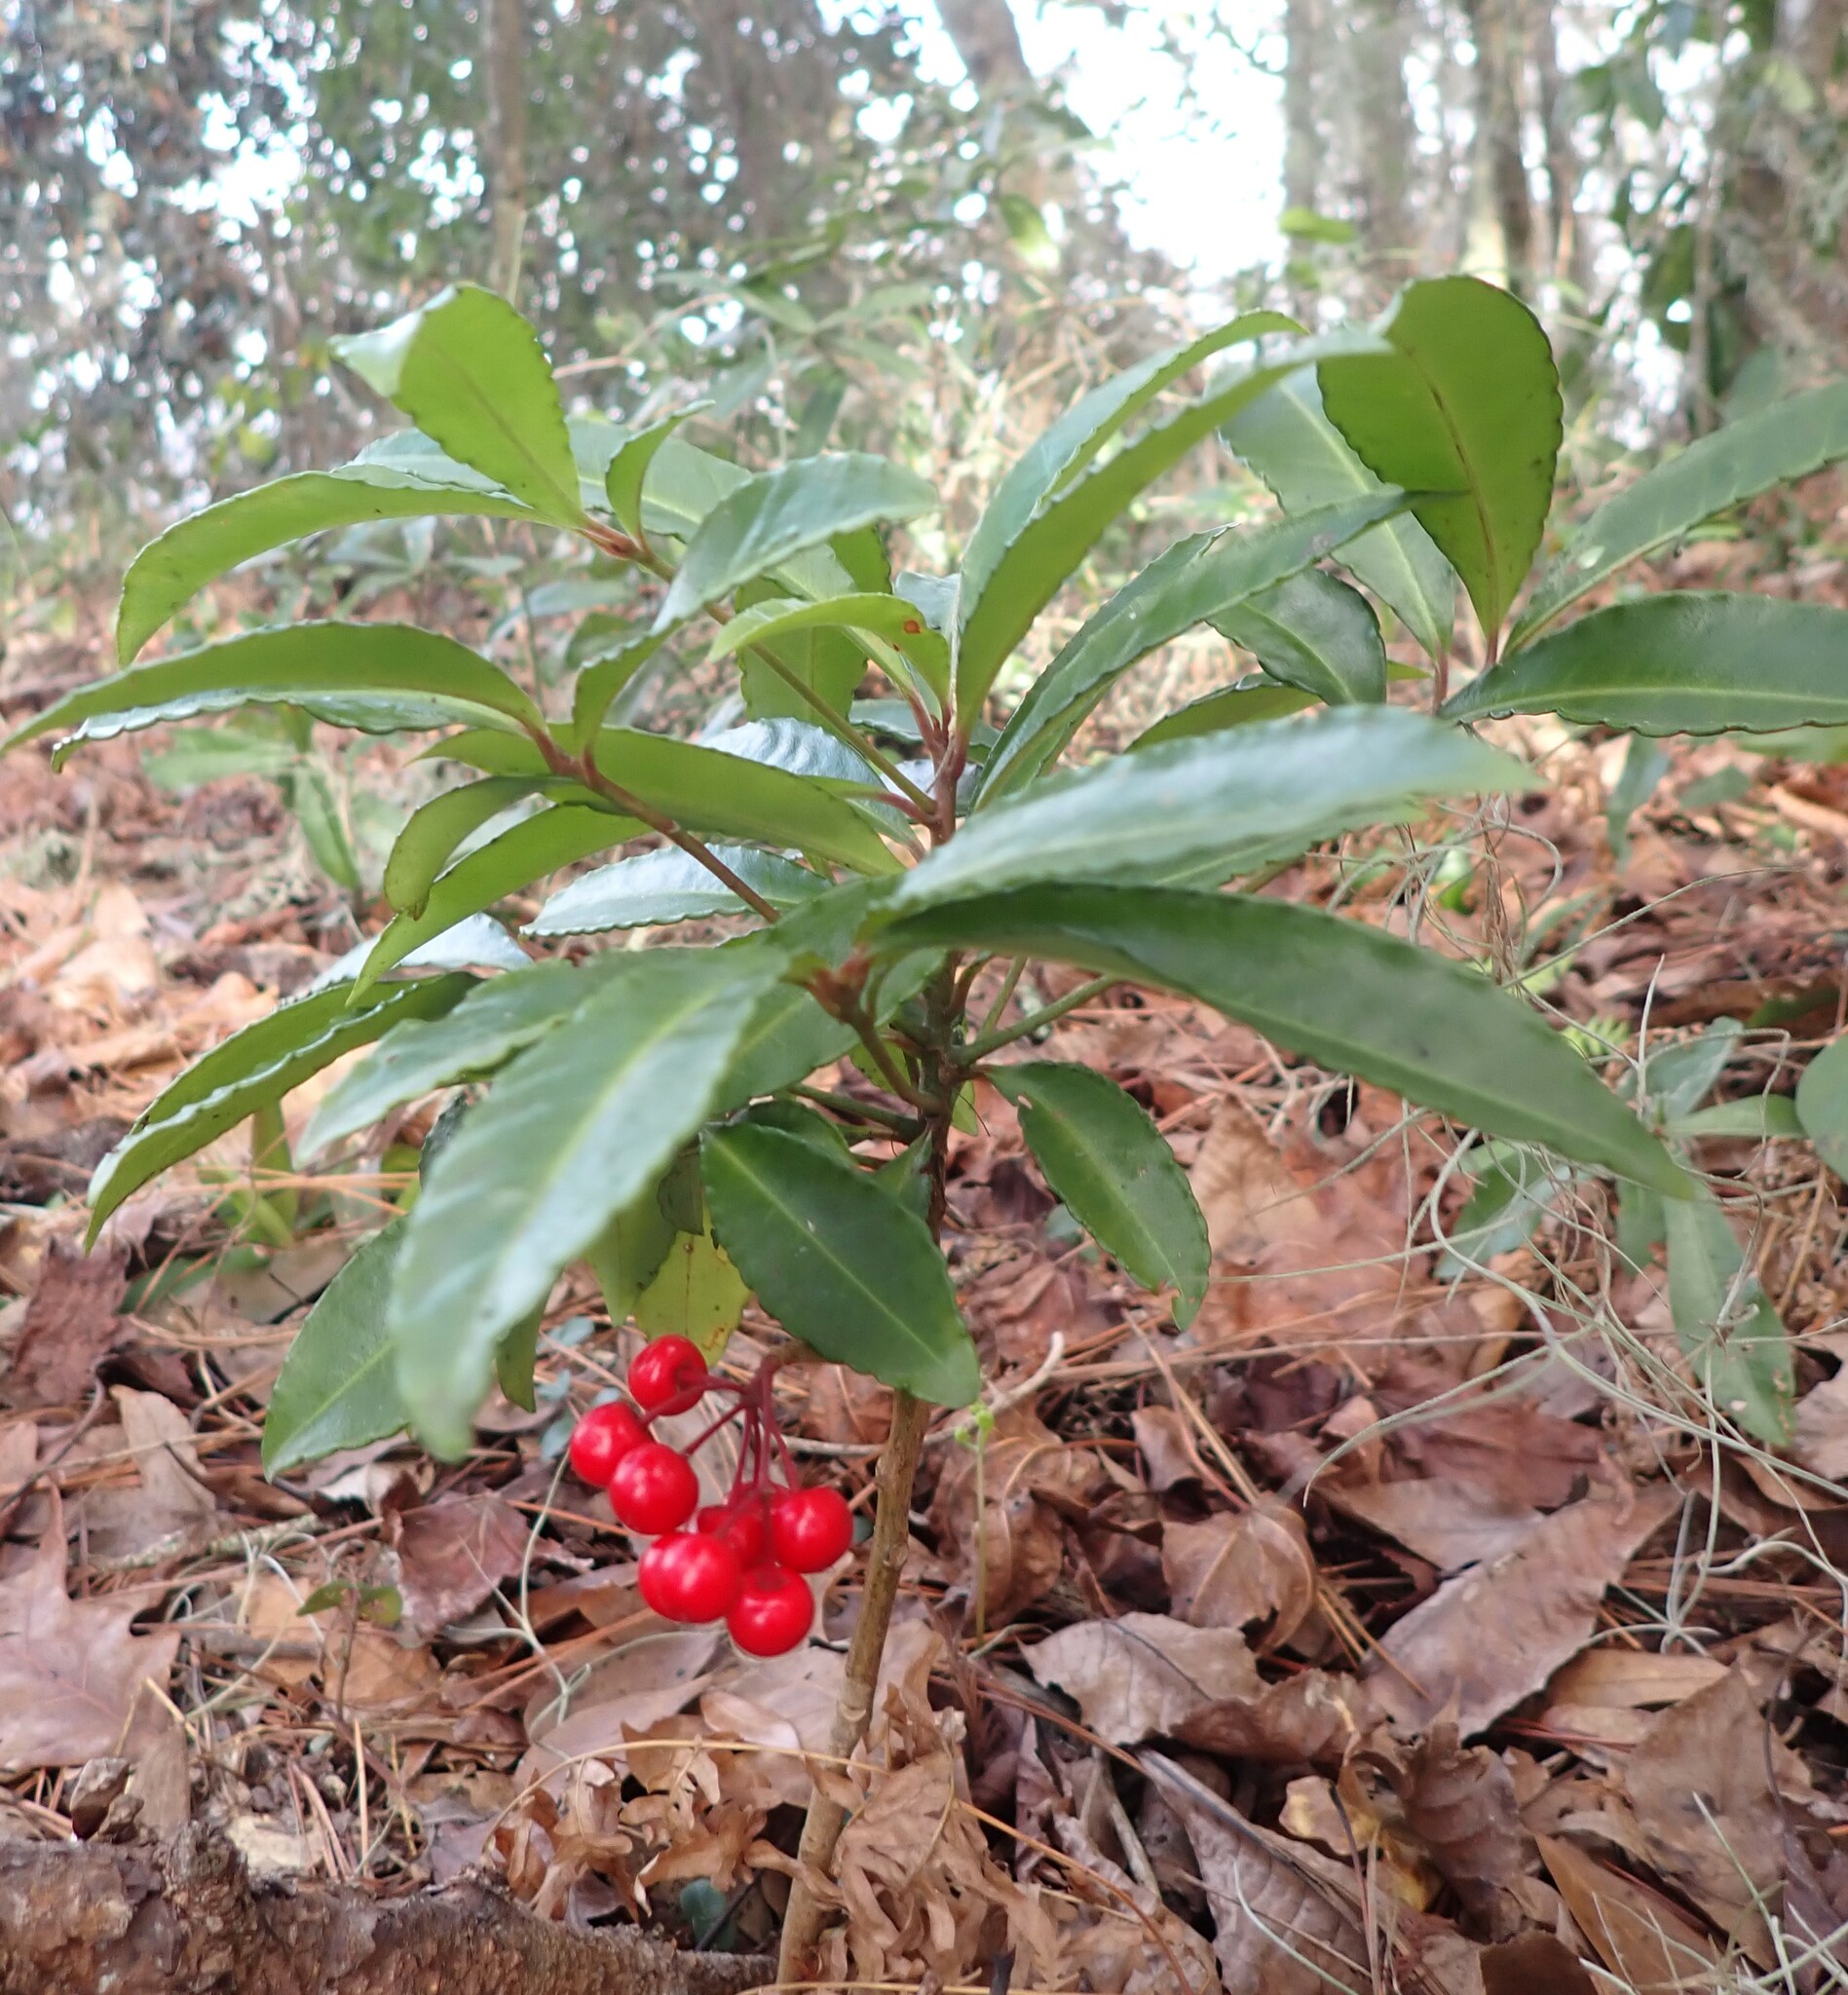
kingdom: Plantae
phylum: Tracheophyta
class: Magnoliopsida
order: Ericales
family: Primulaceae
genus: Ardisia
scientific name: Ardisia crenata
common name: Hen's eyes
